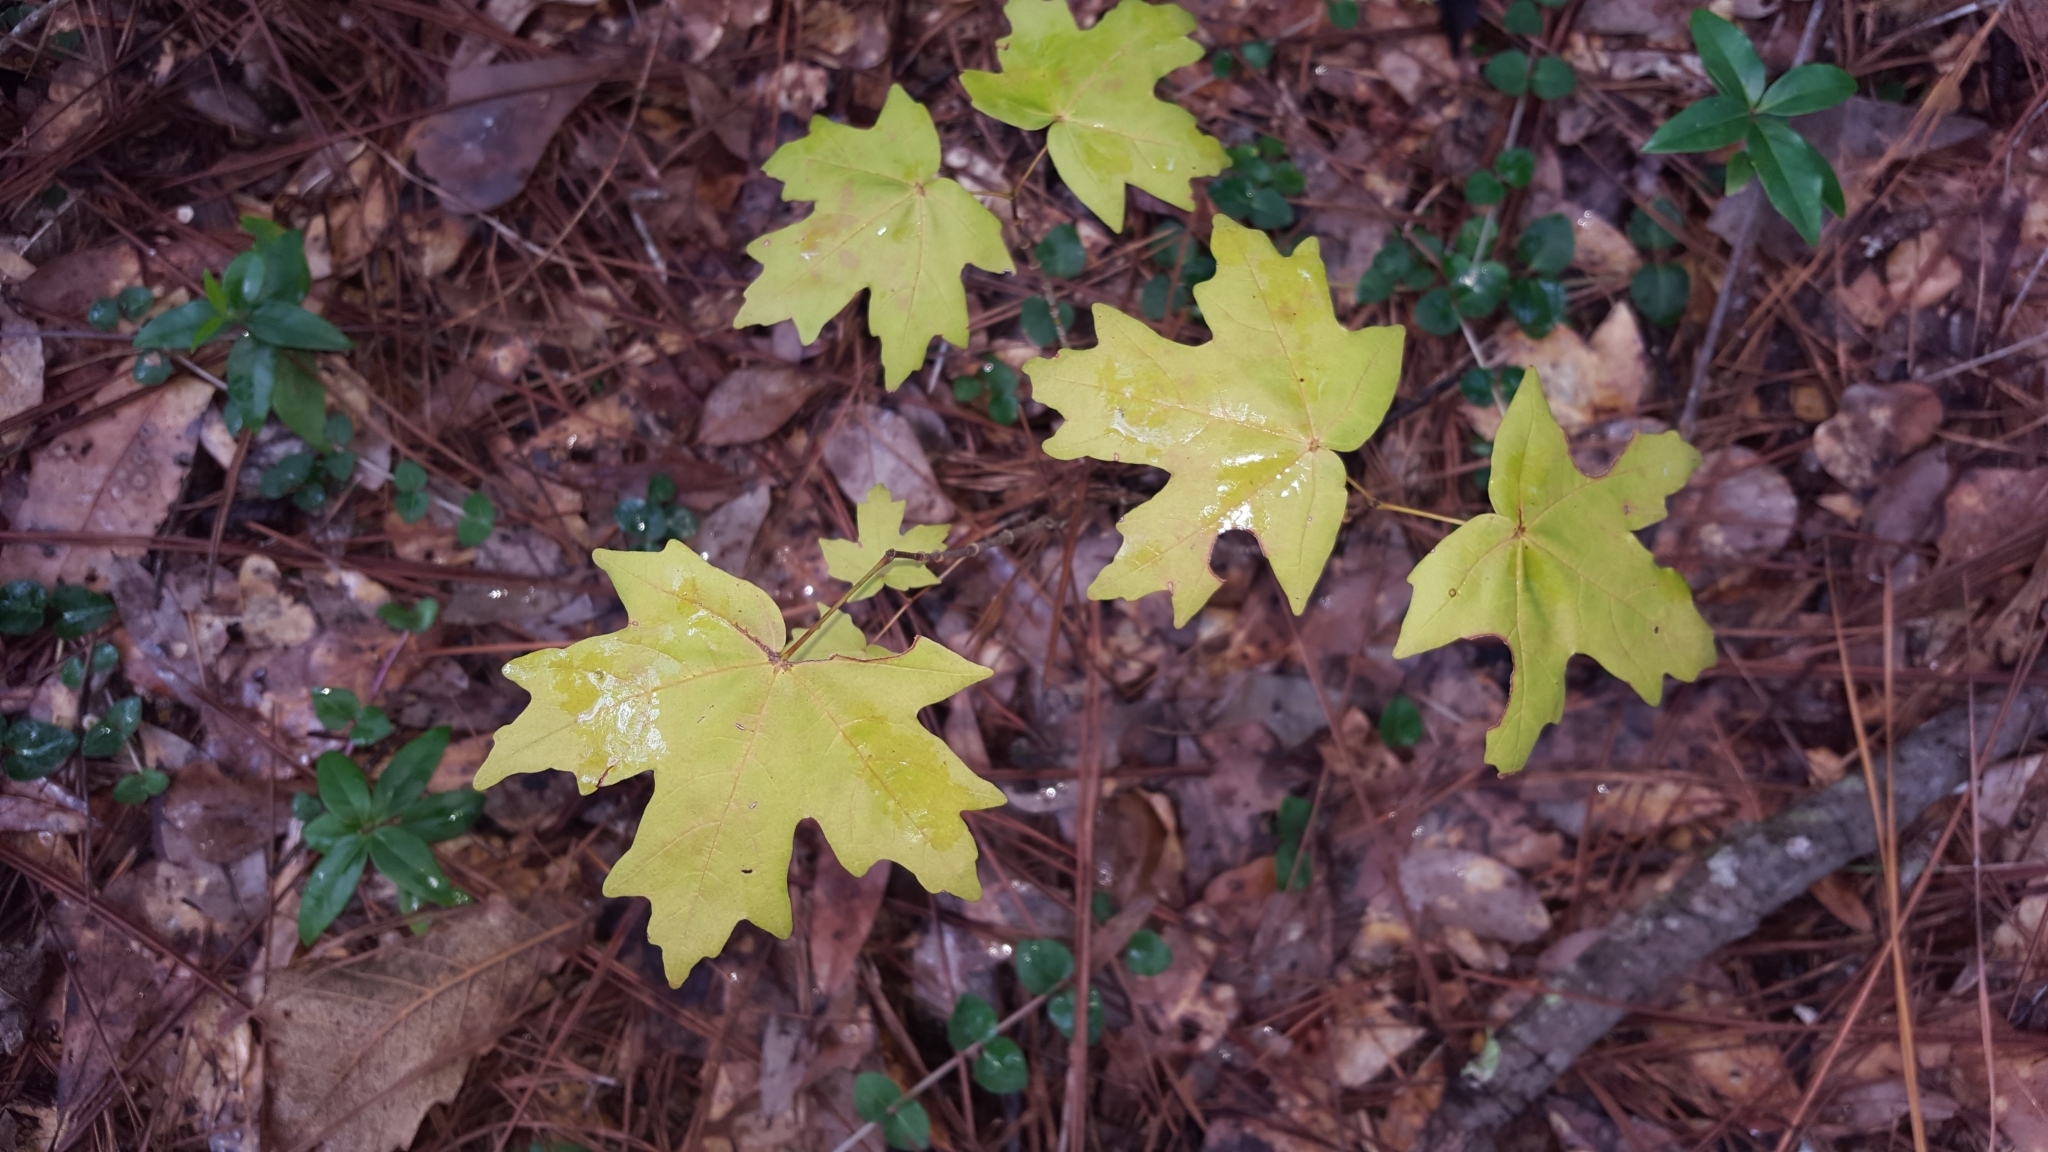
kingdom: Plantae
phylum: Tracheophyta
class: Magnoliopsida
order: Sapindales
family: Sapindaceae
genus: Acer
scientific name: Acer floridanum
